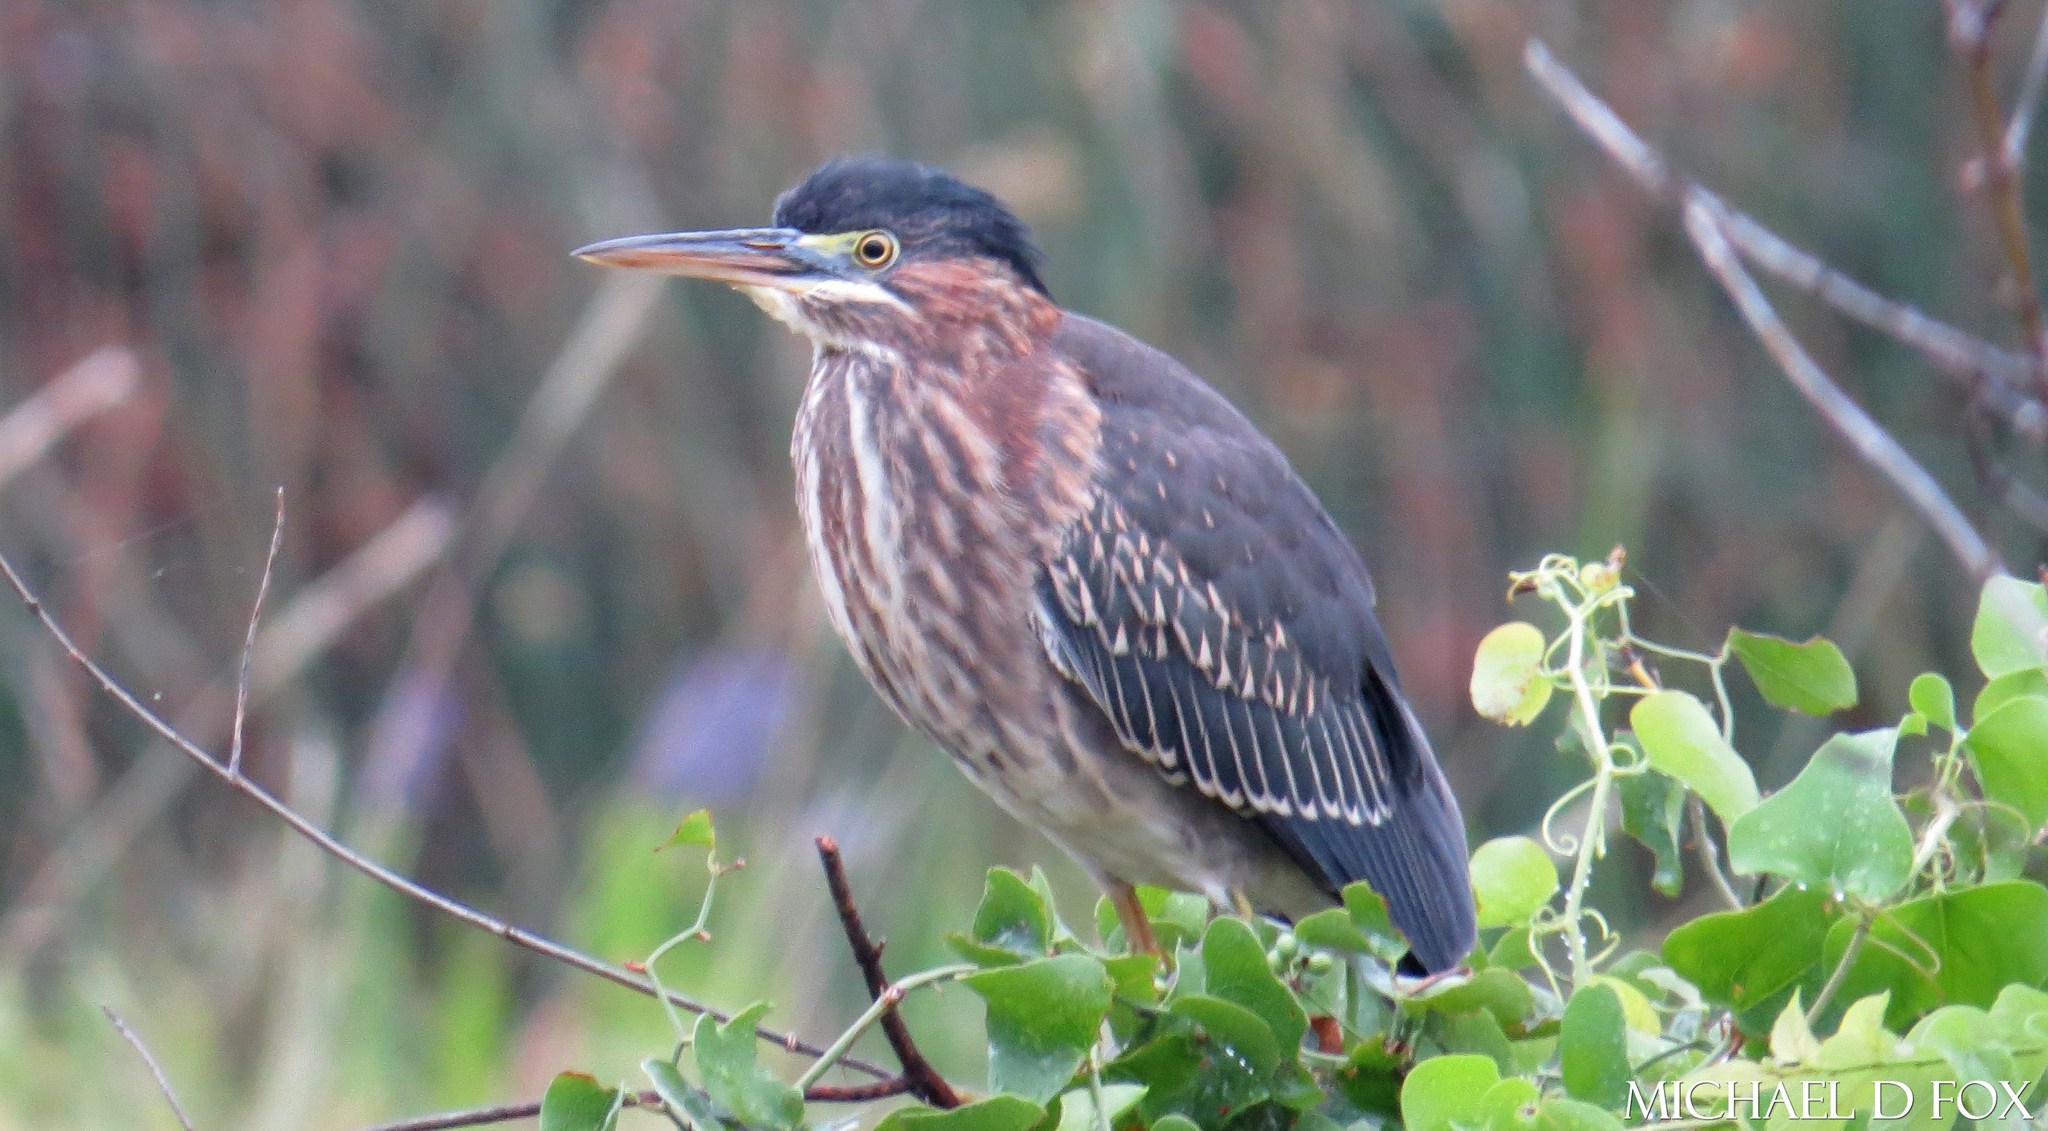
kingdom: Animalia
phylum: Chordata
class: Aves
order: Pelecaniformes
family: Ardeidae
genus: Butorides
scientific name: Butorides virescens
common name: Green heron
